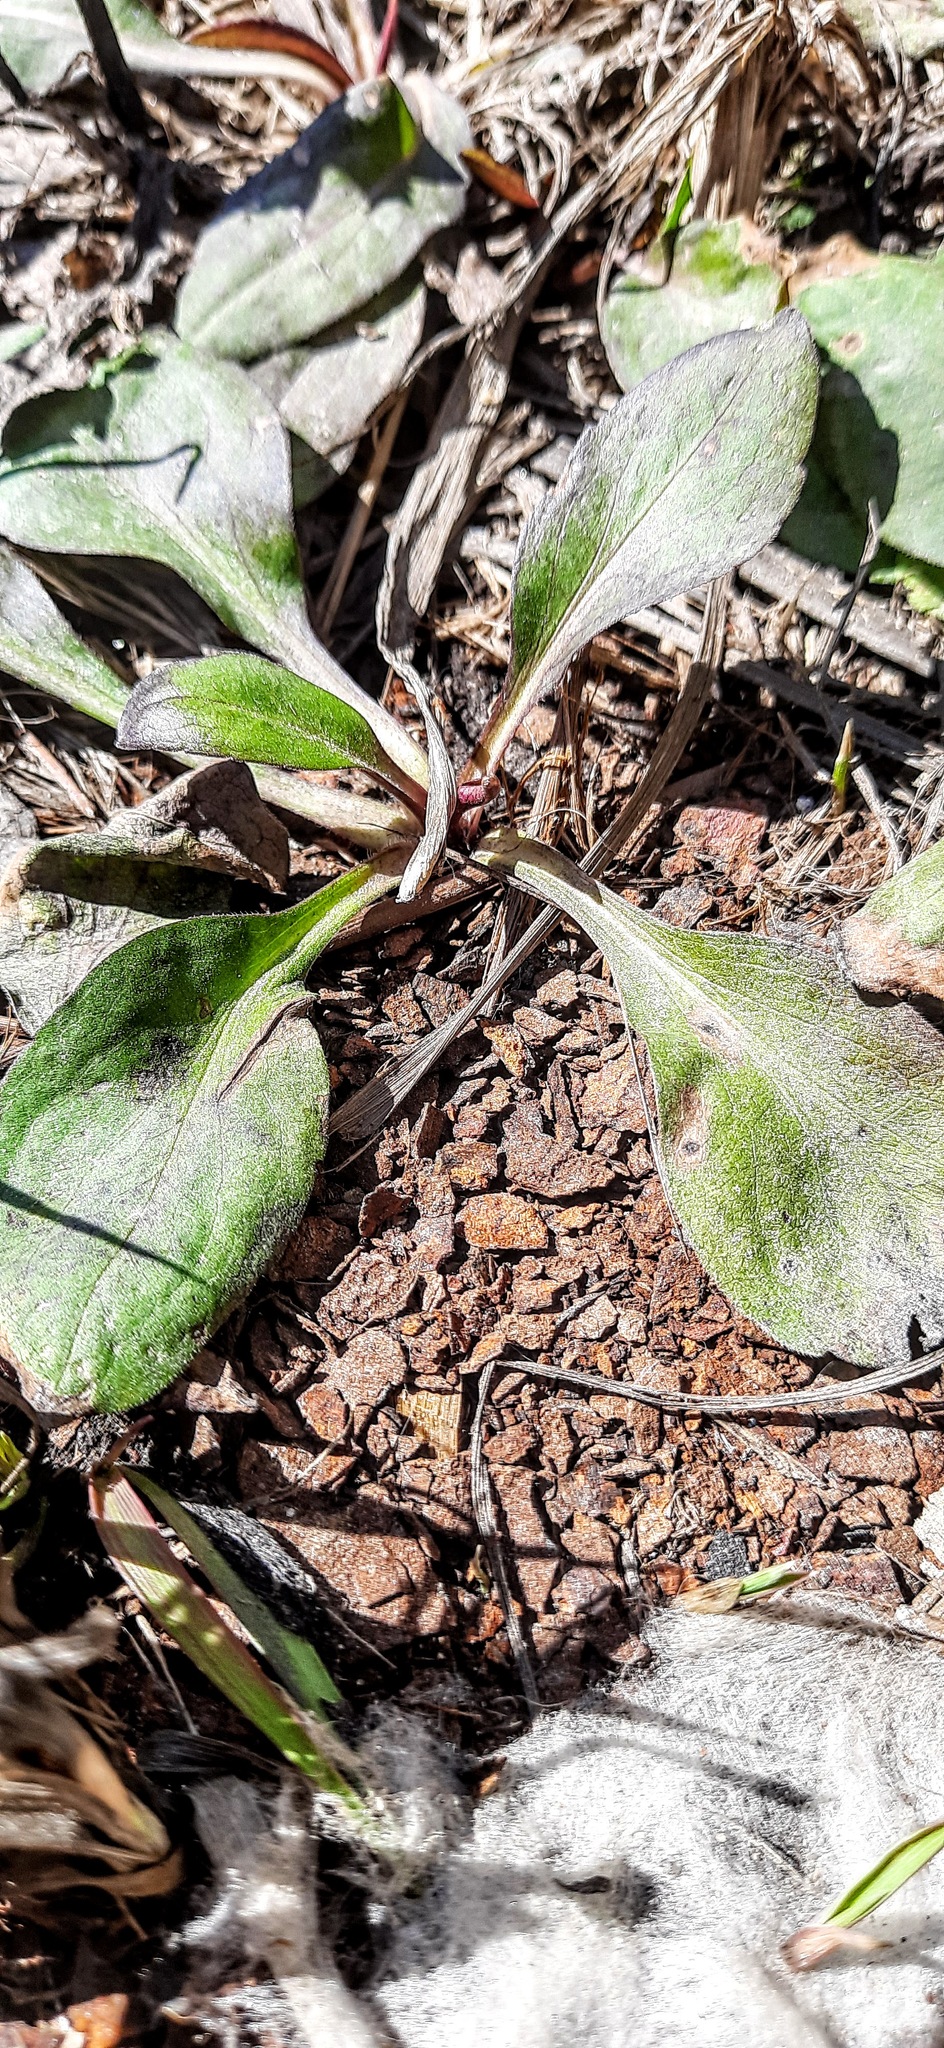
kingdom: Plantae
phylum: Tracheophyta
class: Magnoliopsida
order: Asterales
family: Asteraceae
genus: Solidago
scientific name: Solidago virgaurea
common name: Goldenrod
